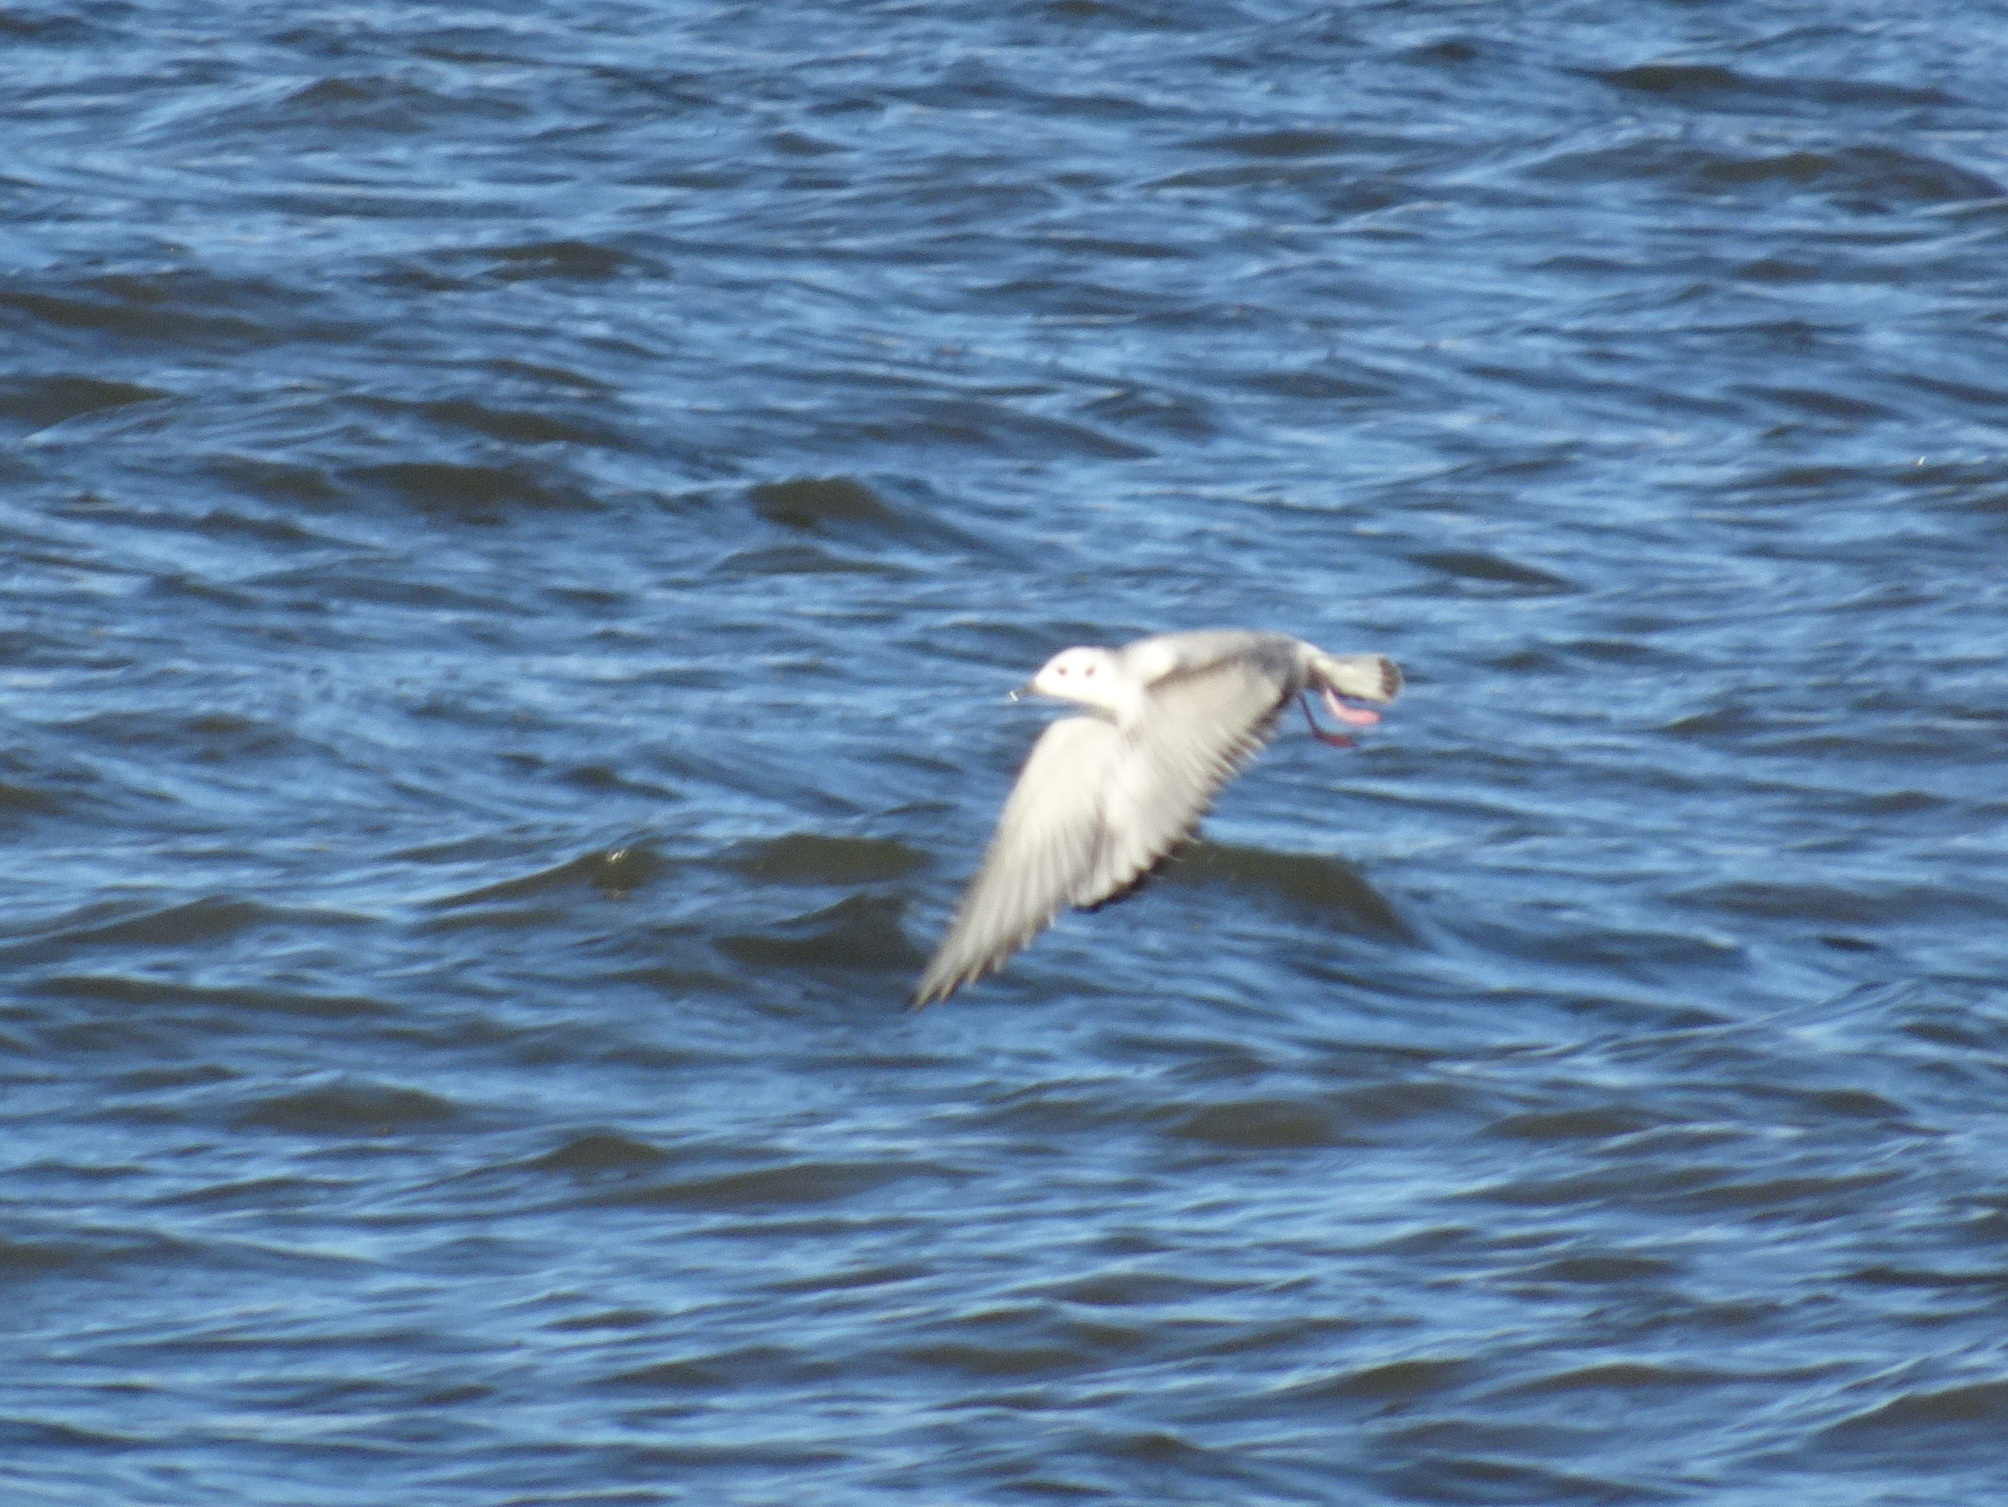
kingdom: Animalia
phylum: Chordata
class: Aves
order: Charadriiformes
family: Laridae
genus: Chroicocephalus
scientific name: Chroicocephalus philadelphia
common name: Bonaparte's gull
